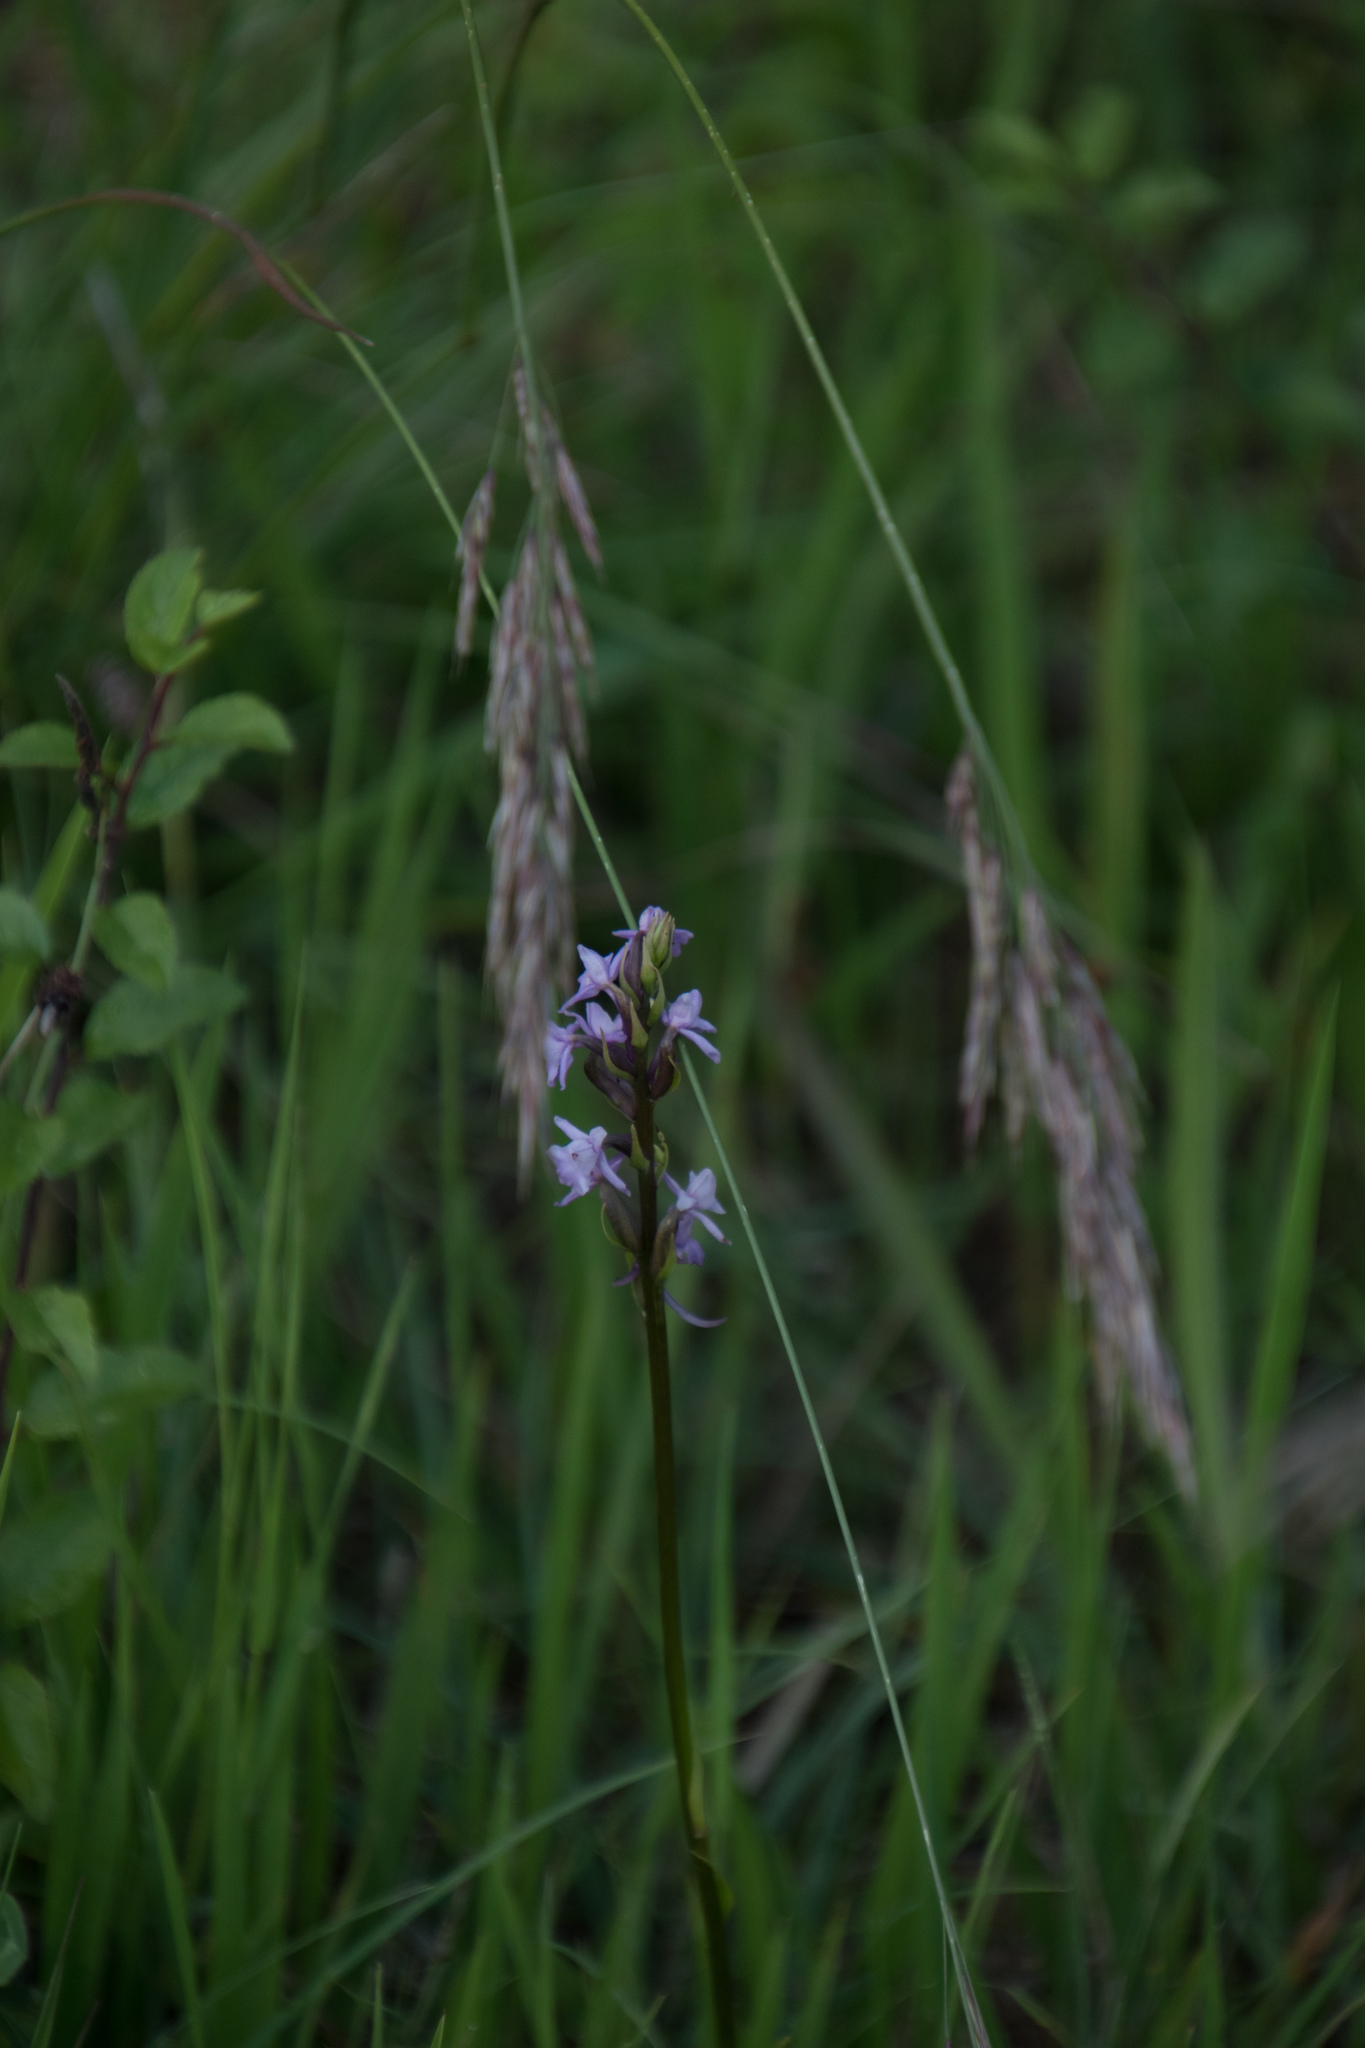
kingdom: Plantae
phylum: Tracheophyta
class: Liliopsida
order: Asparagales
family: Orchidaceae
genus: Gymnadenia
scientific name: Gymnadenia conopsea
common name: Fragrant orchid
